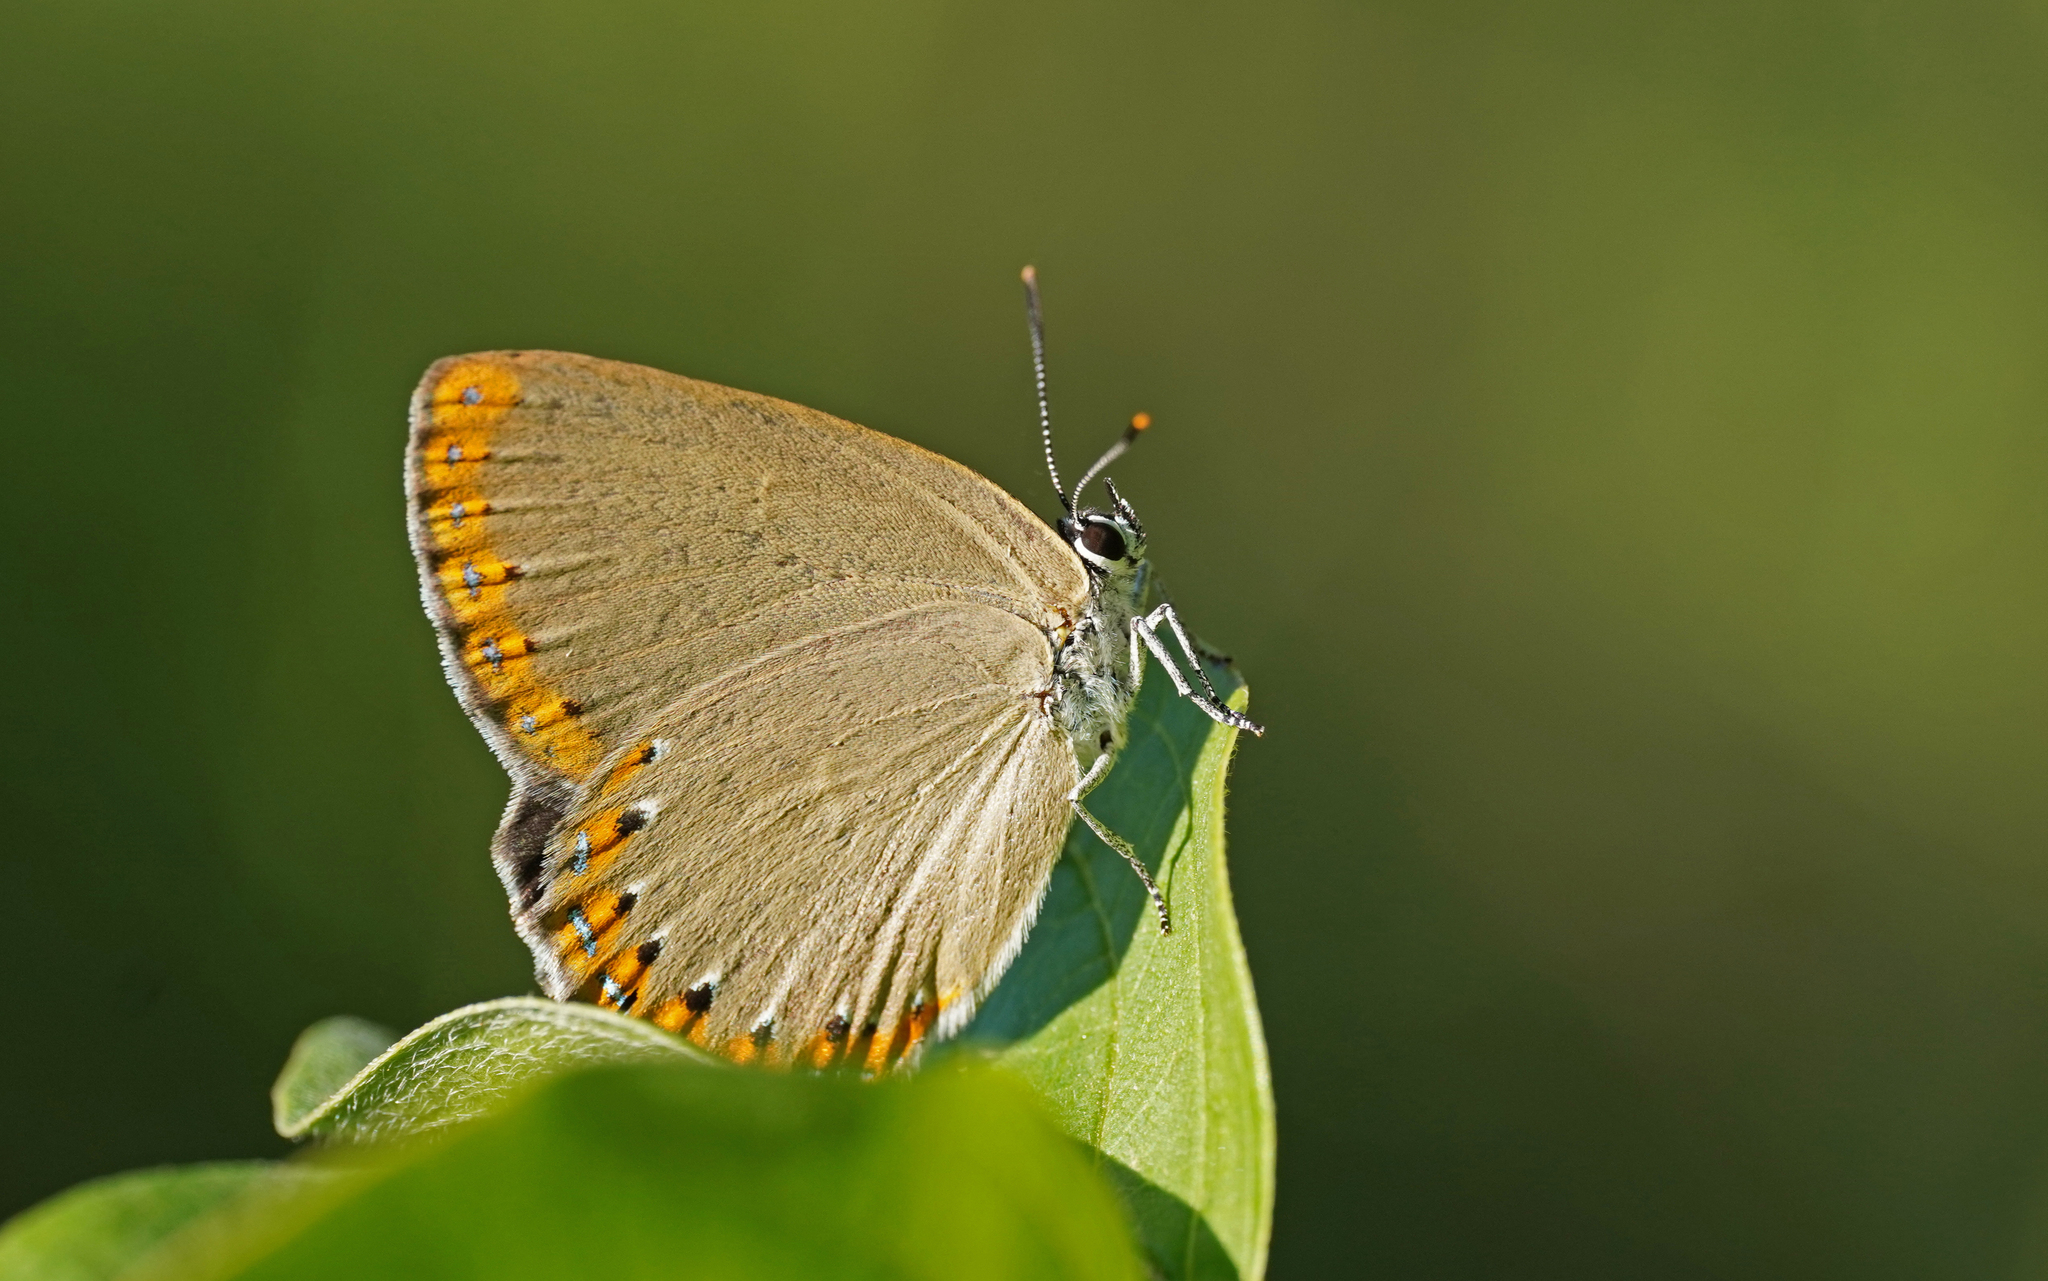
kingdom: Animalia
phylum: Arthropoda
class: Insecta
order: Lepidoptera
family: Lycaenidae
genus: Laeosopis
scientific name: Laeosopis roboris
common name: Spanish purple hairstreak
